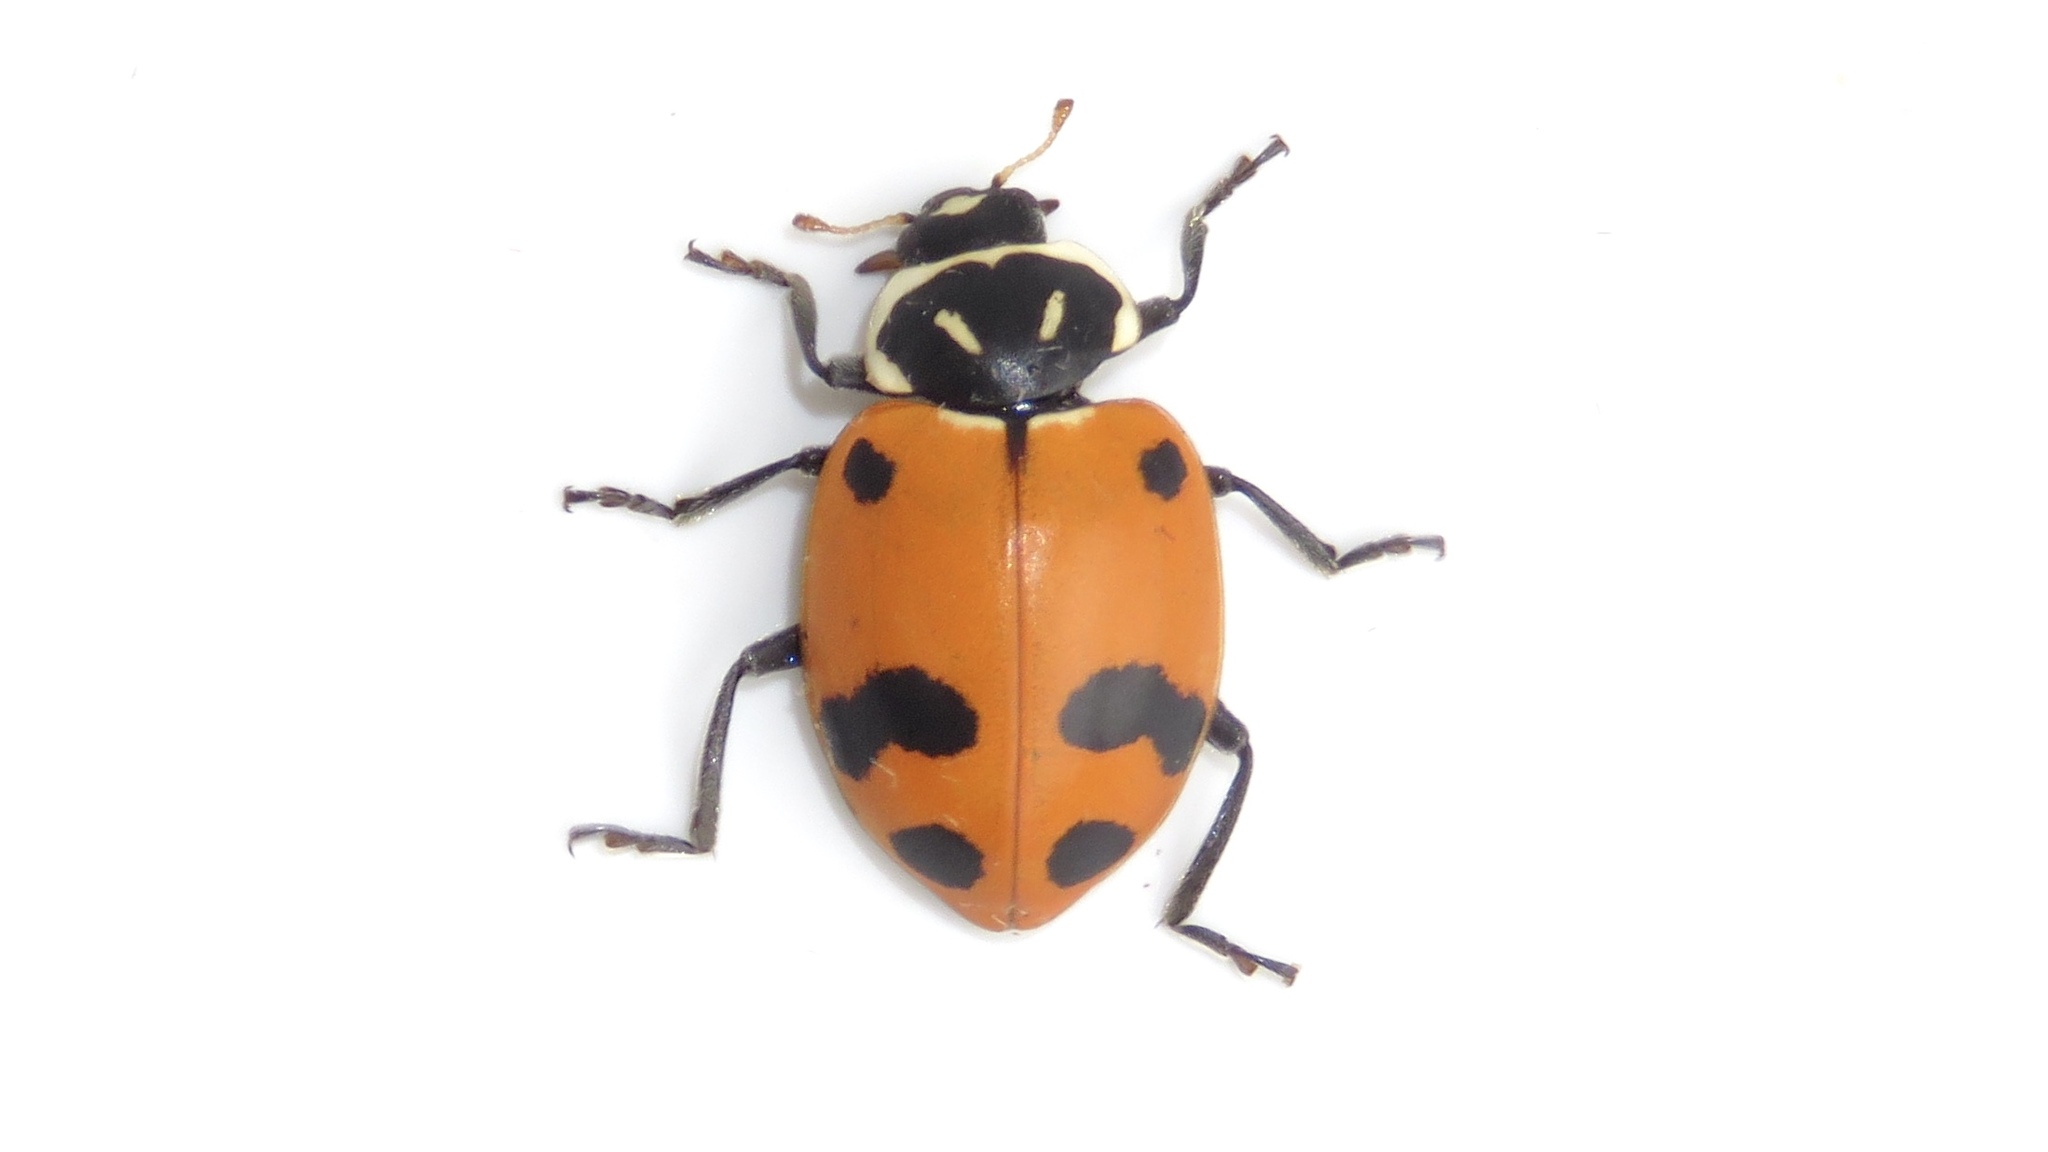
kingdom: Animalia
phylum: Arthropoda
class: Insecta
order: Coleoptera
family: Coccinellidae
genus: Hippodamia
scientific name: Hippodamia glacialis
